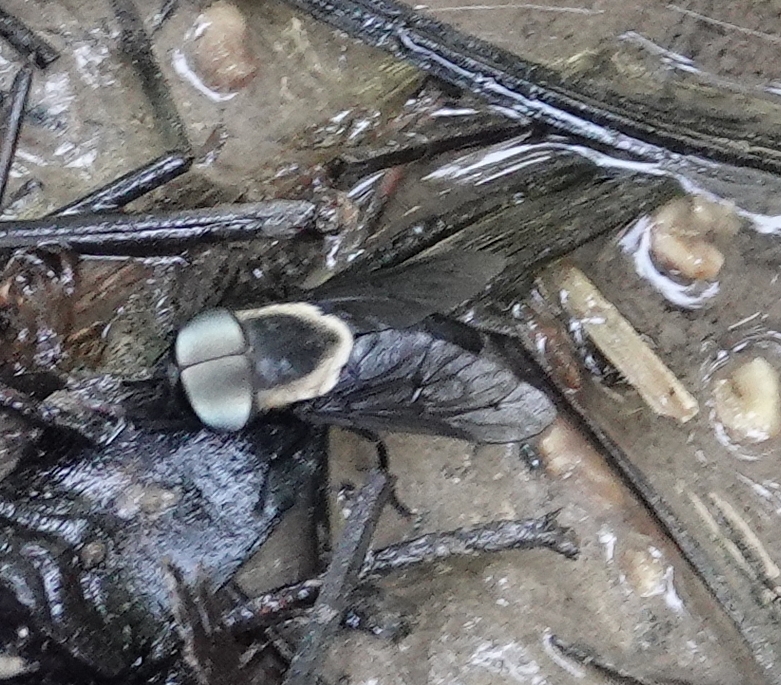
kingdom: Animalia
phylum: Arthropoda
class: Insecta
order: Diptera
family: Tabanidae
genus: Tabanus
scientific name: Tabanus punctifer
